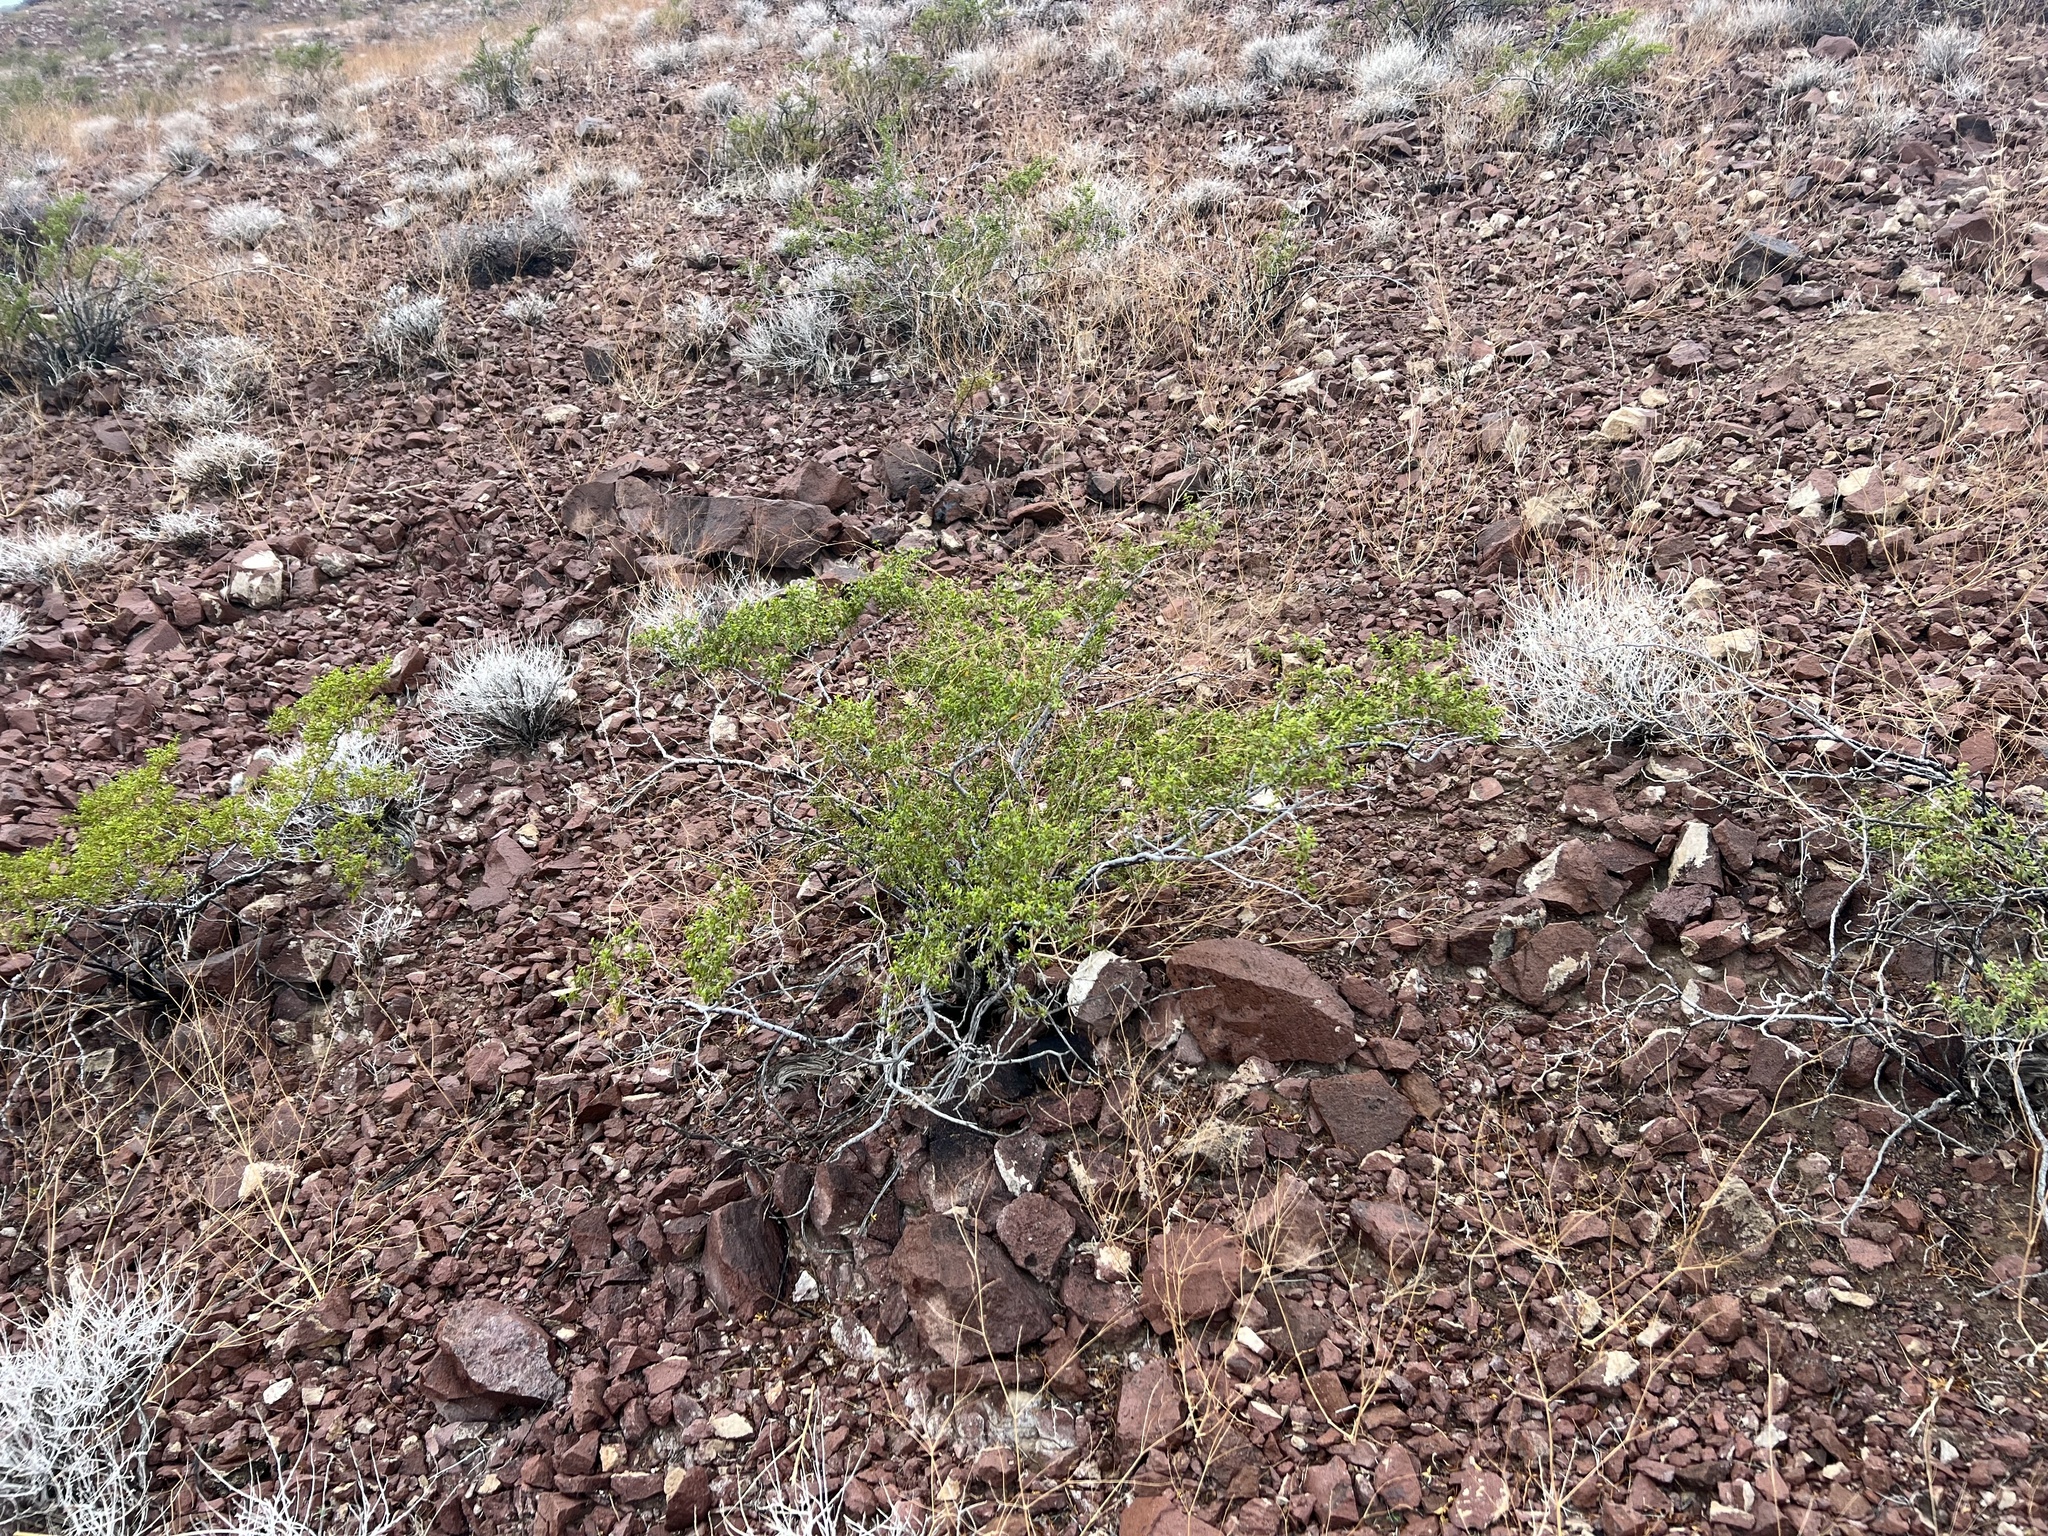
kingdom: Plantae
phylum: Tracheophyta
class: Magnoliopsida
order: Zygophyllales
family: Zygophyllaceae
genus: Larrea
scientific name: Larrea tridentata
